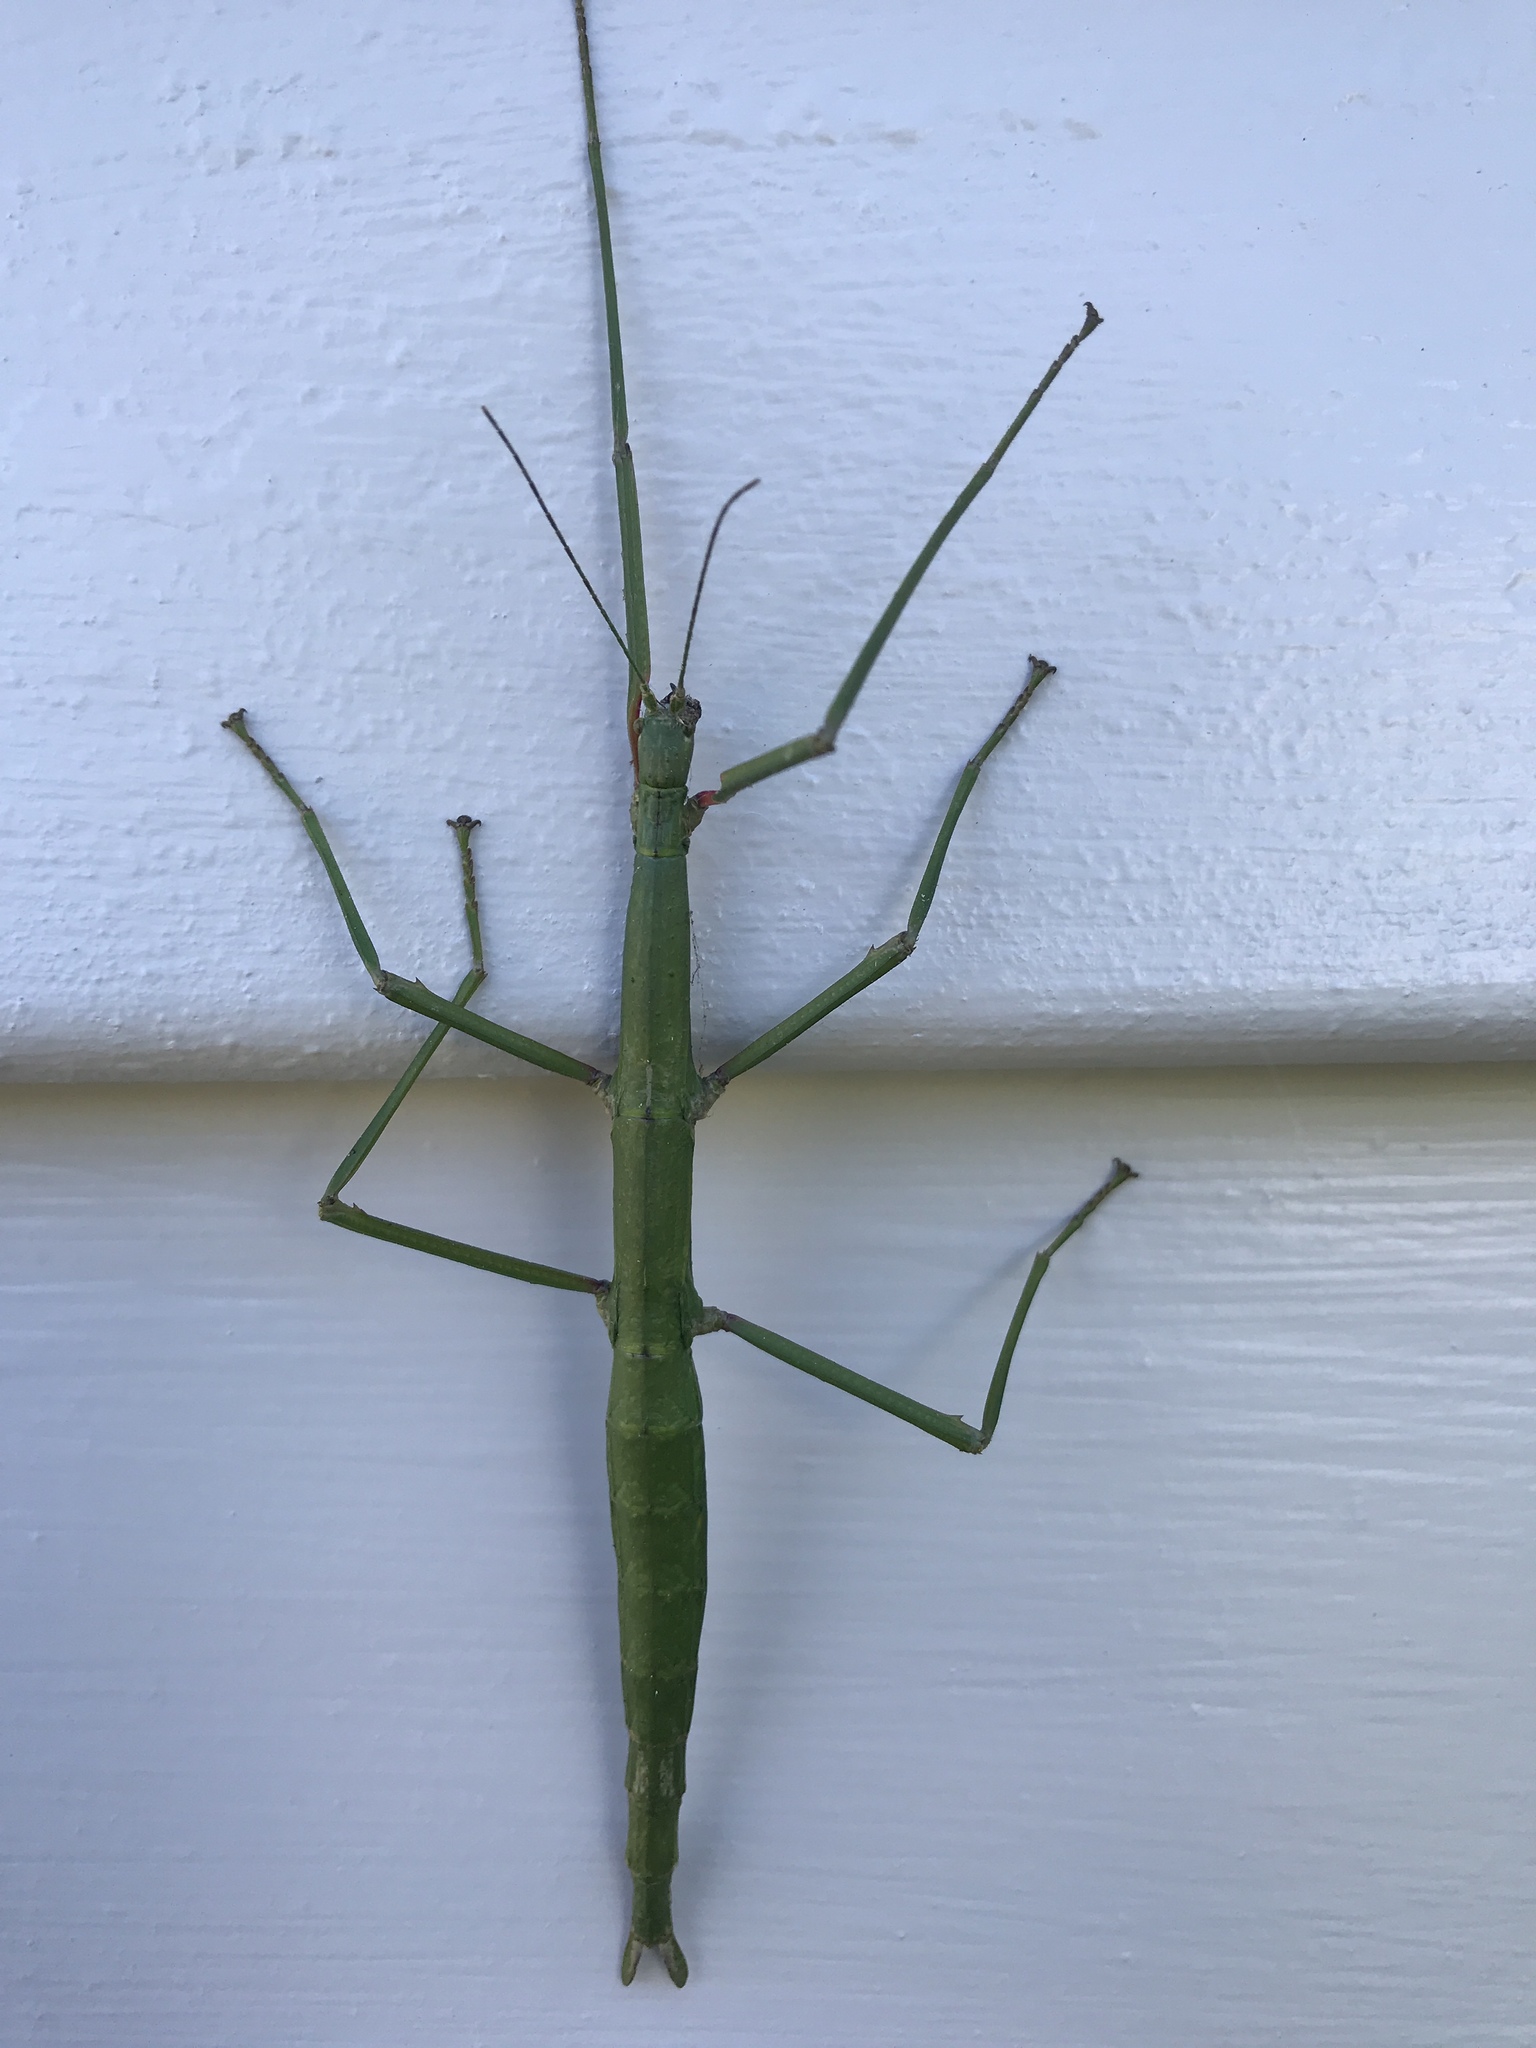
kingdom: Animalia
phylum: Arthropoda
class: Insecta
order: Phasmida
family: Phasmatidae
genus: Acanthoxyla
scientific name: Acanthoxyla inermis
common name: Unarmed stick insect
